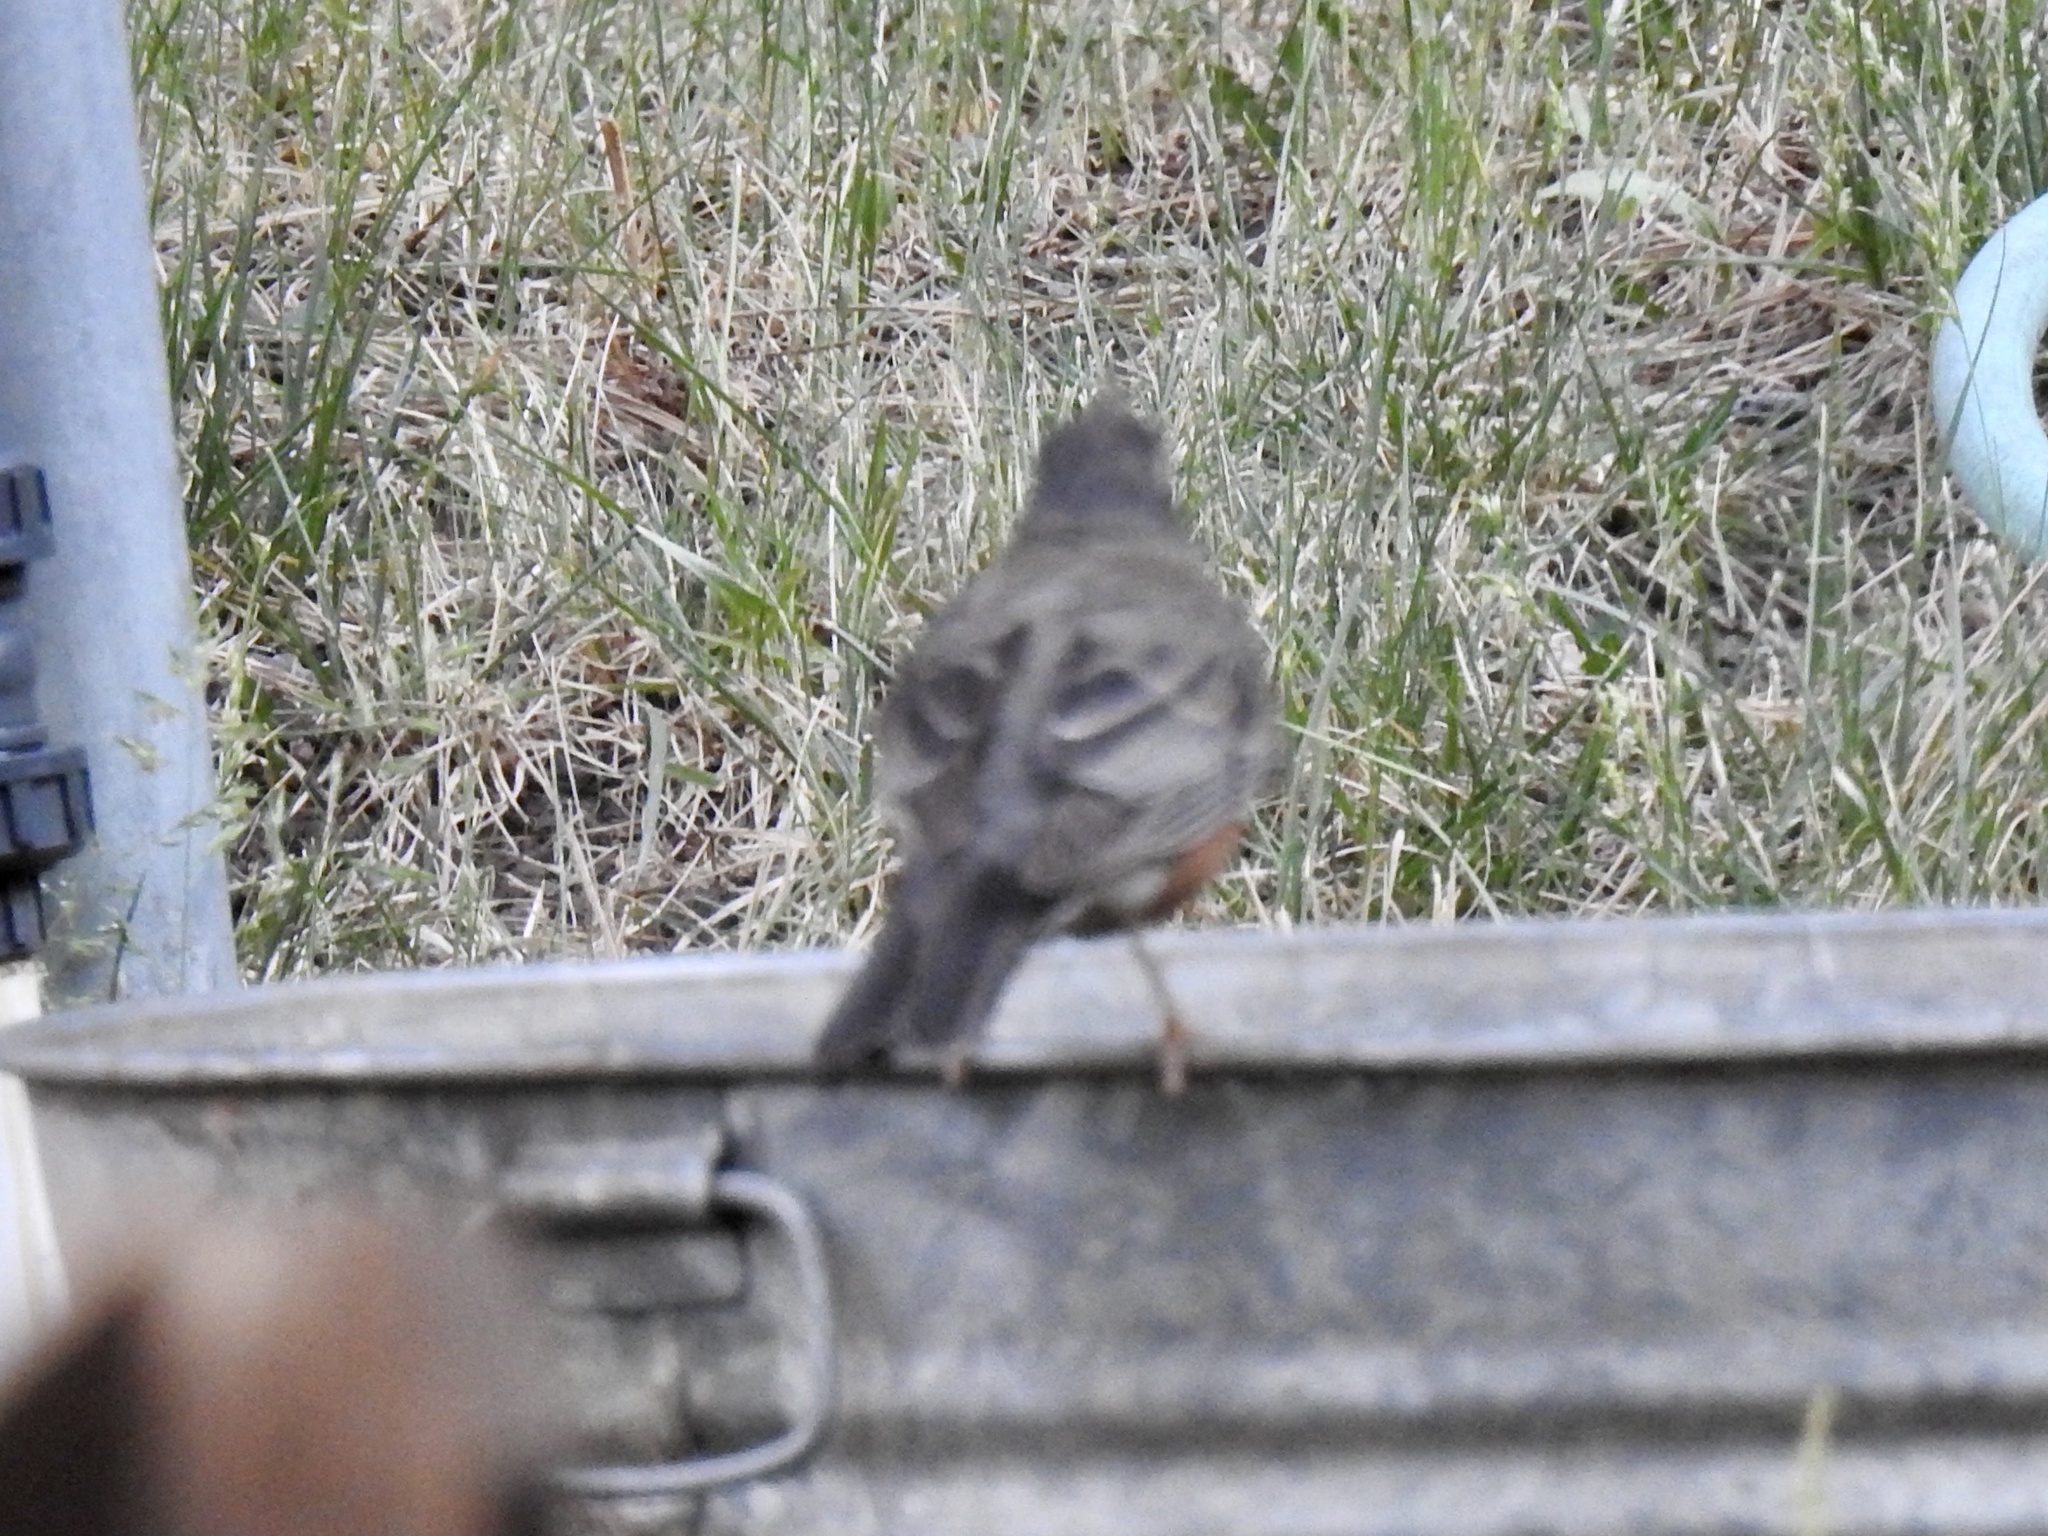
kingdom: Animalia
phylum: Chordata
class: Aves
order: Passeriformes
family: Turdidae
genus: Turdus
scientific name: Turdus migratorius
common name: American robin
